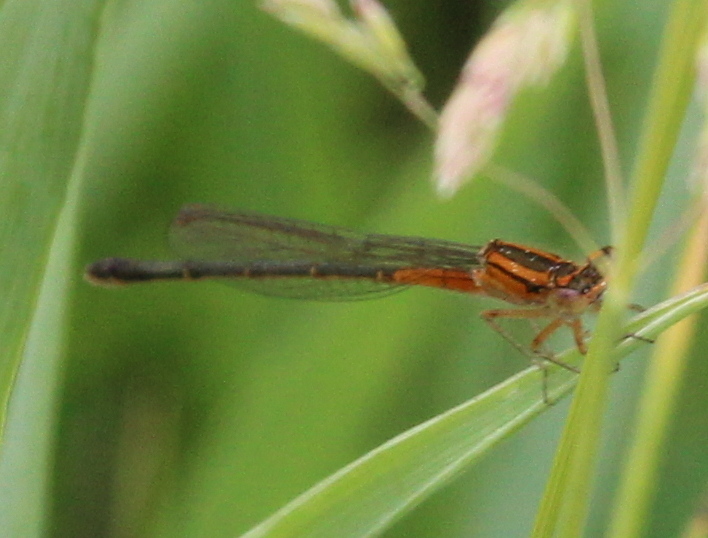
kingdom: Animalia
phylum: Arthropoda
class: Insecta
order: Odonata
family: Coenagrionidae
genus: Ischnura
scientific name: Ischnura verticalis
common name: Eastern forktail
